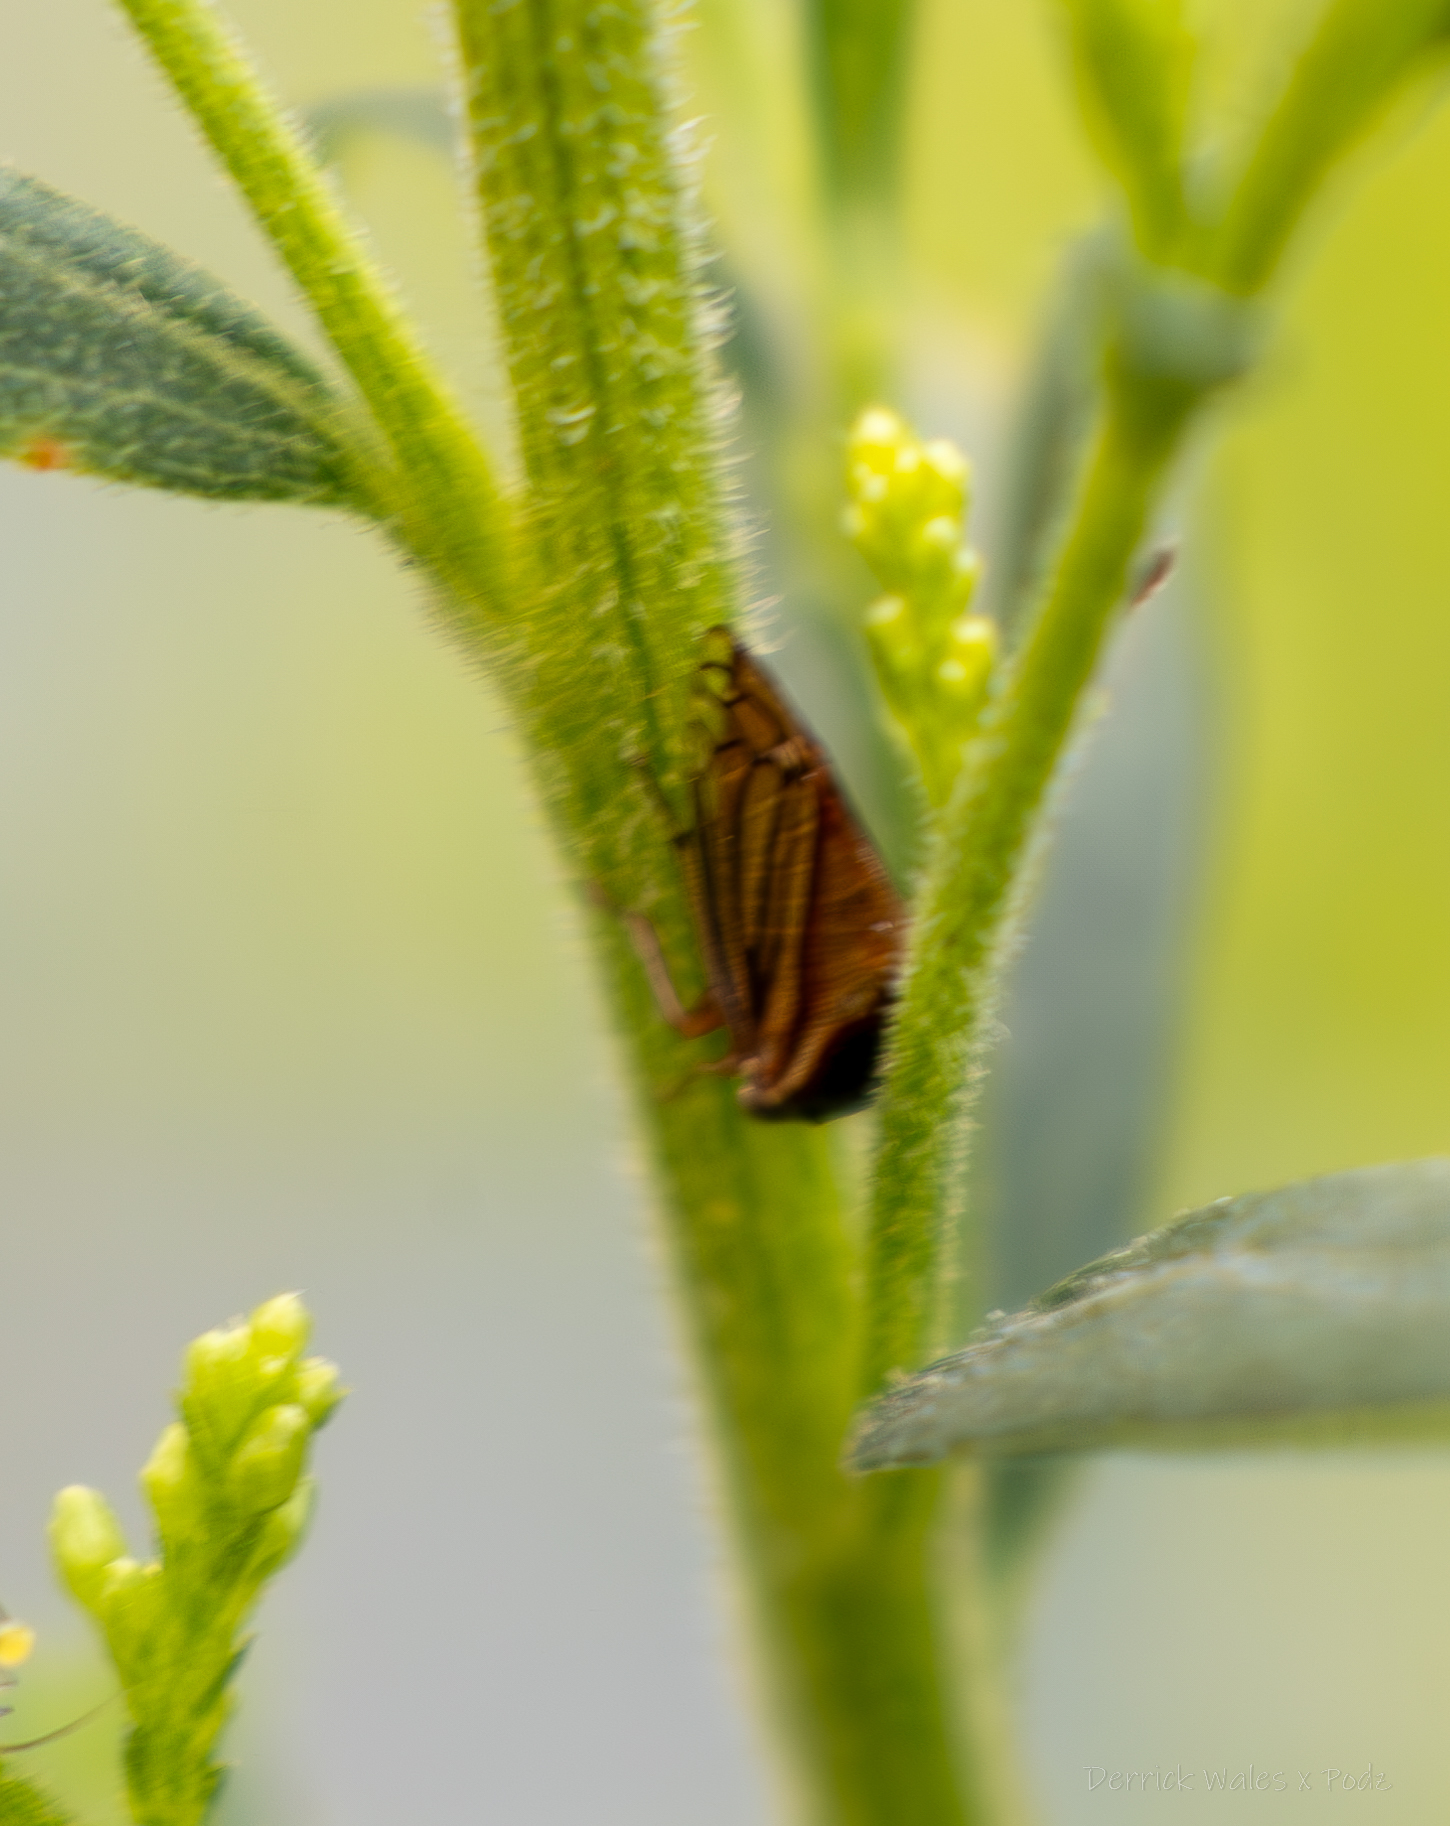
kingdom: Animalia
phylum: Arthropoda
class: Insecta
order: Hemiptera
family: Membracidae
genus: Acutalis
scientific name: Acutalis tartarea
